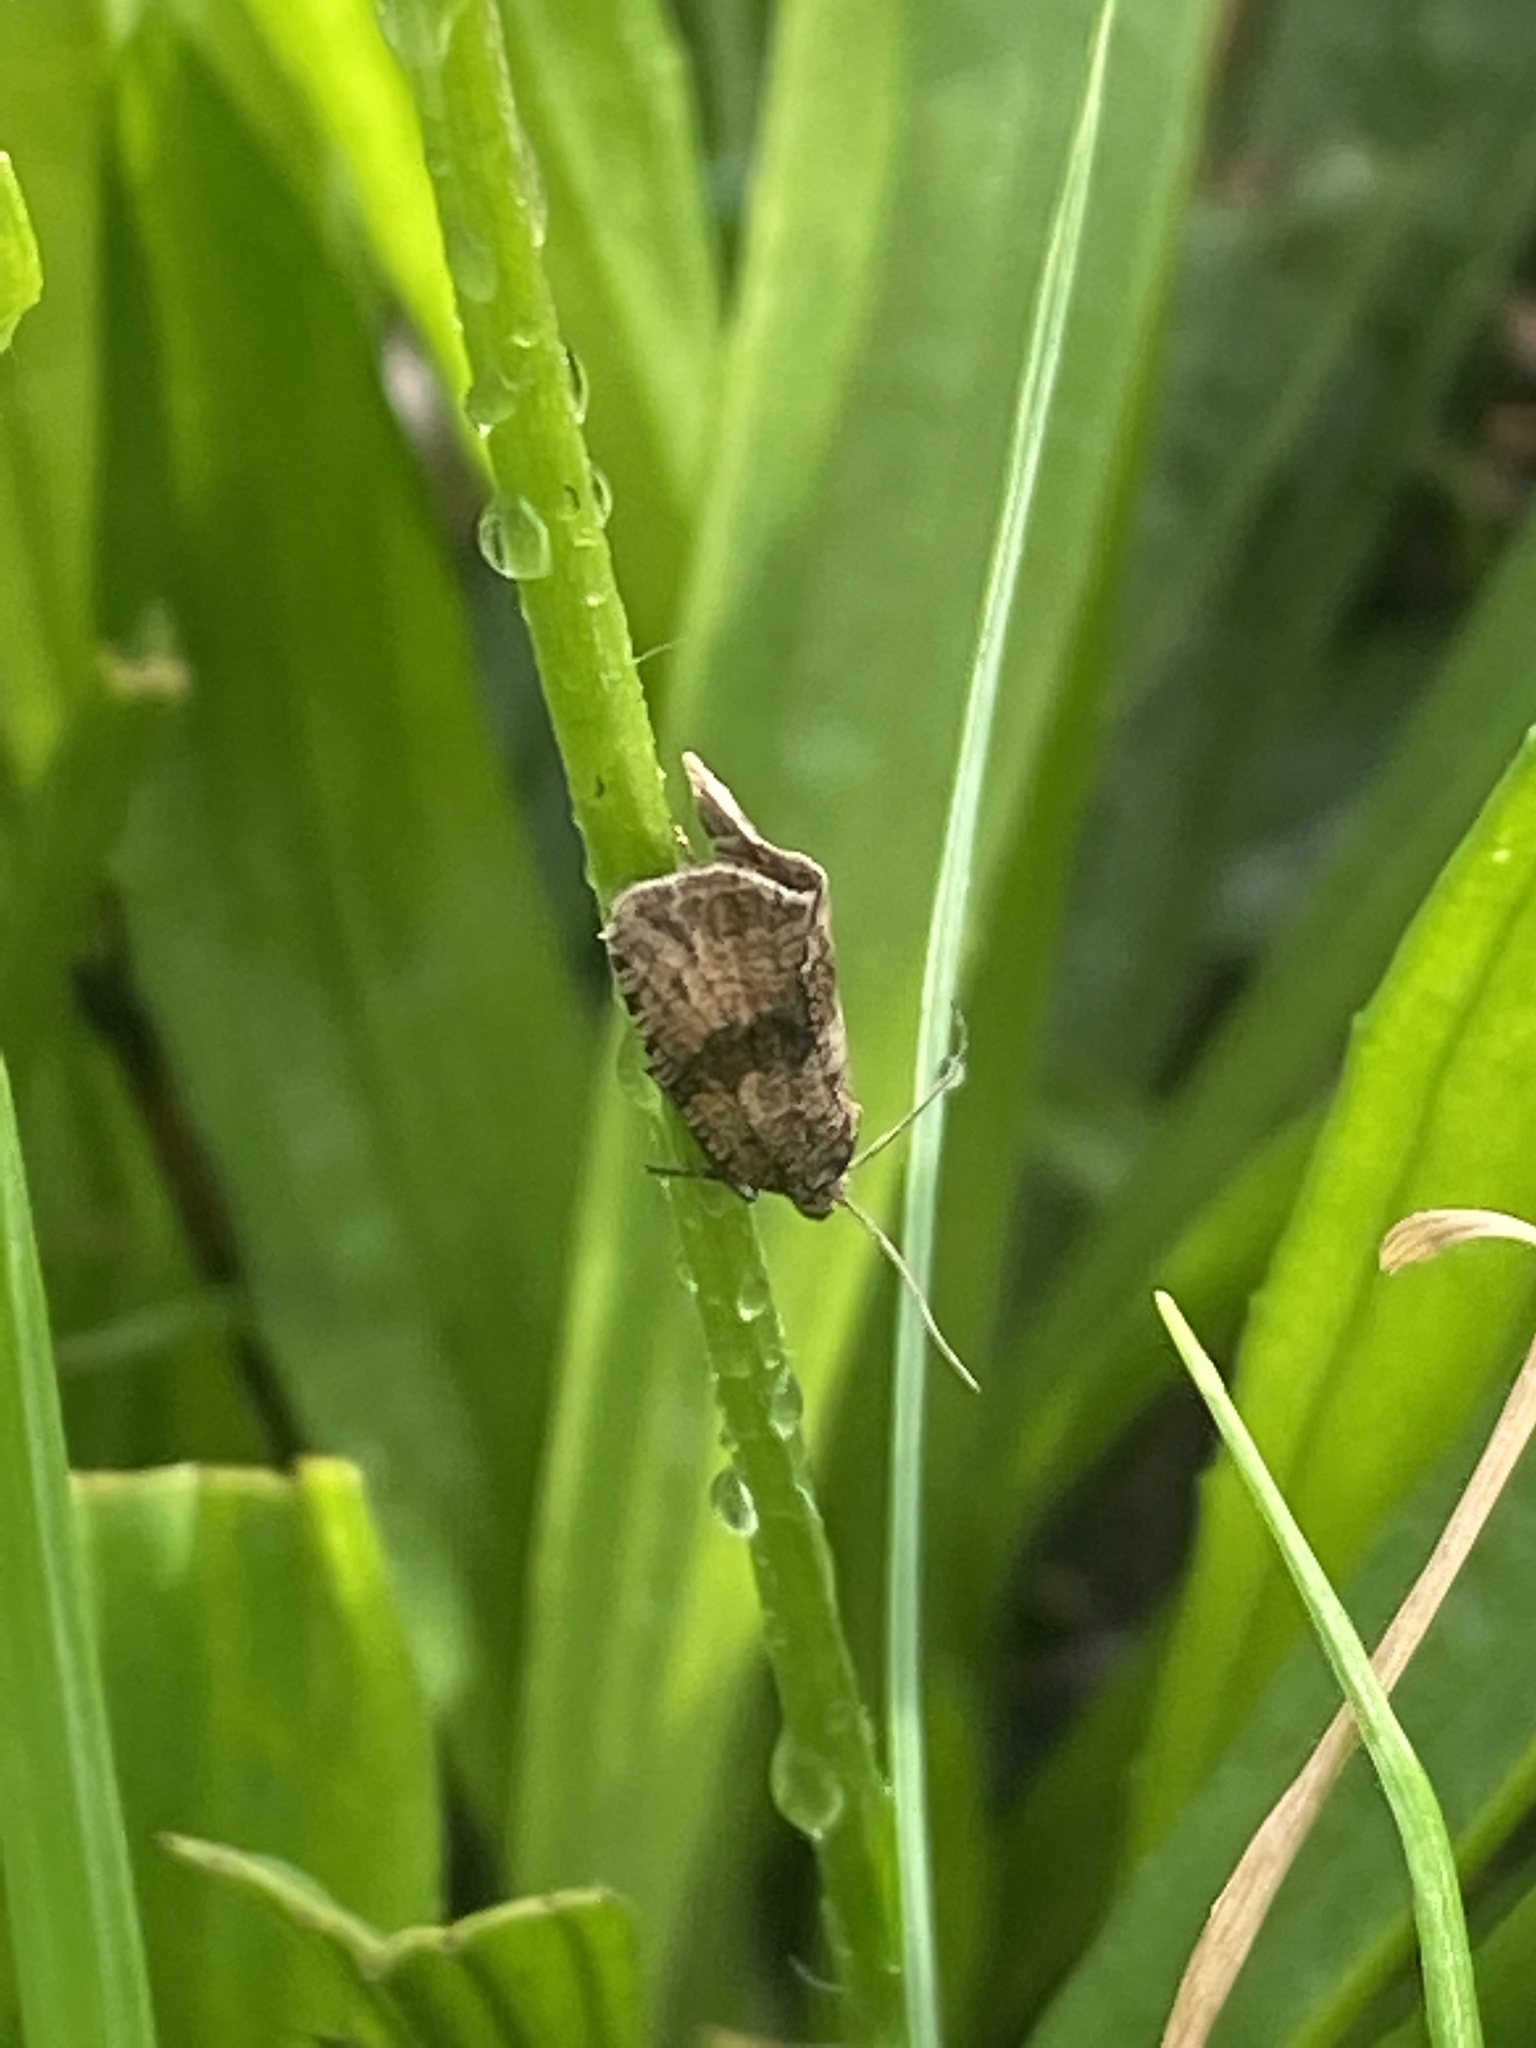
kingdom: Animalia
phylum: Arthropoda
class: Insecta
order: Lepidoptera
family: Tortricidae
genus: Celypha
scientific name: Celypha striana
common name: Barred marble
